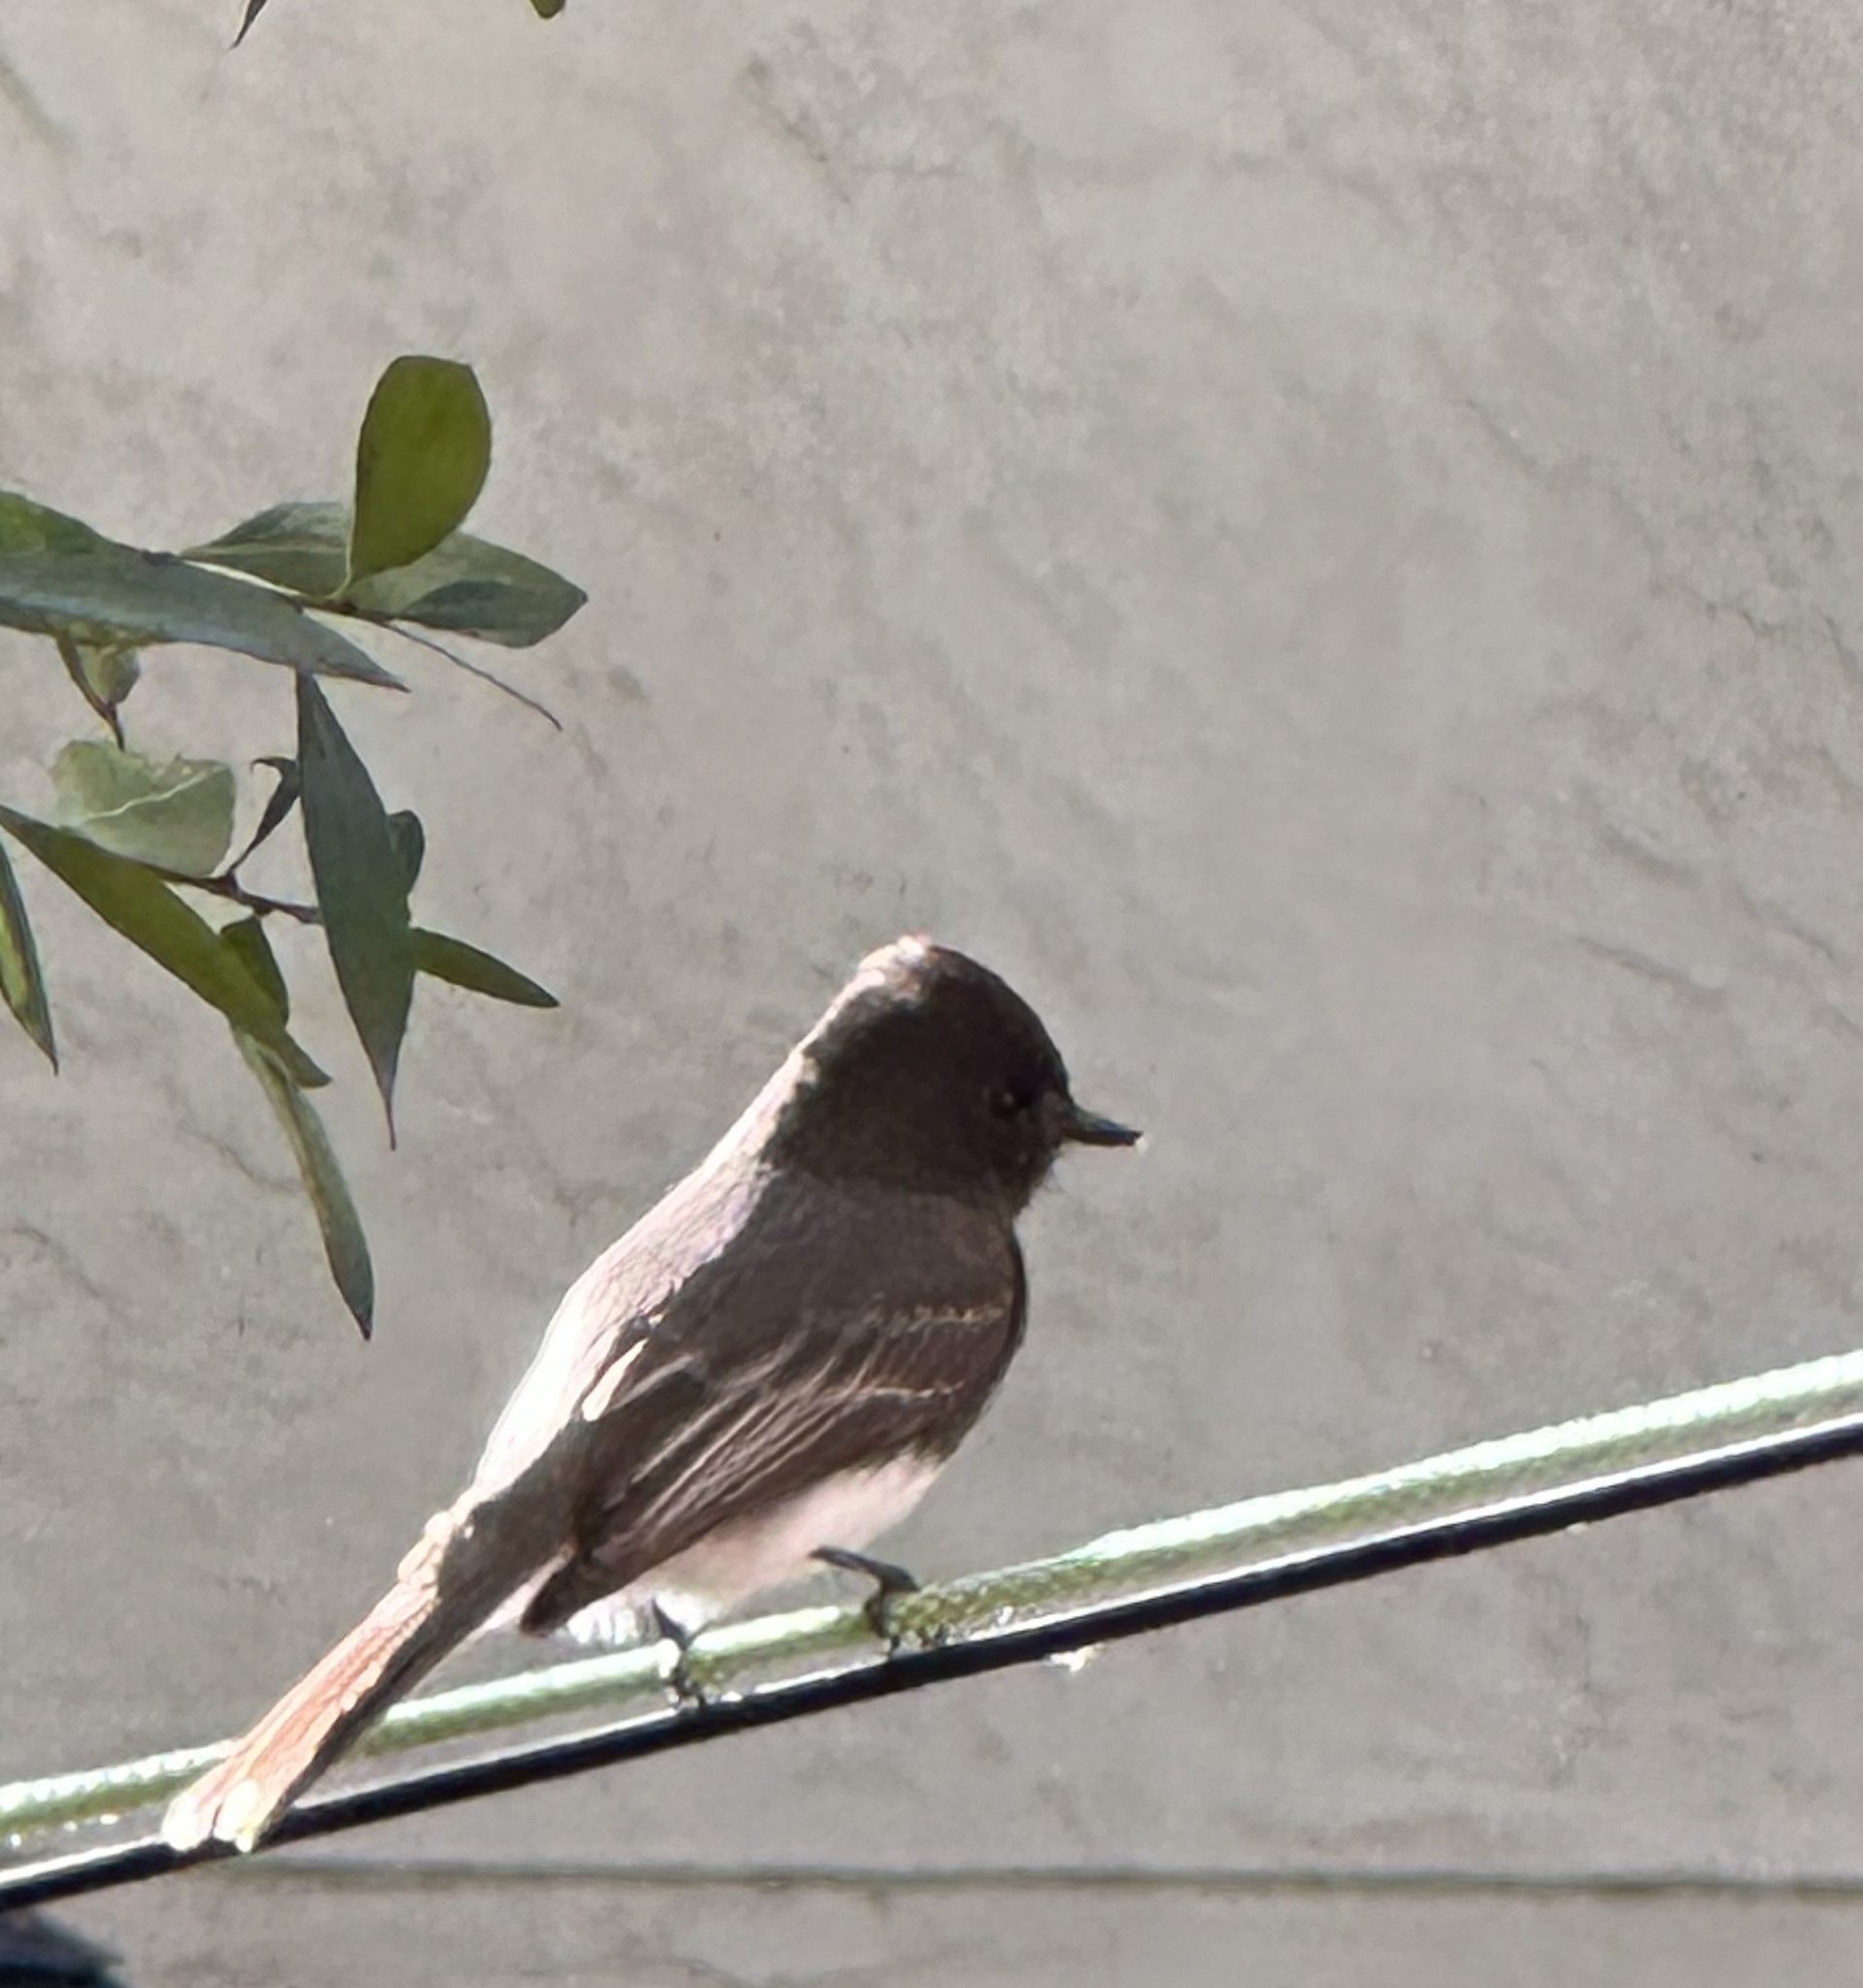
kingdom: Animalia
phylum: Chordata
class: Aves
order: Passeriformes
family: Tyrannidae
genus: Sayornis
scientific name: Sayornis nigricans
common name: Black phoebe
